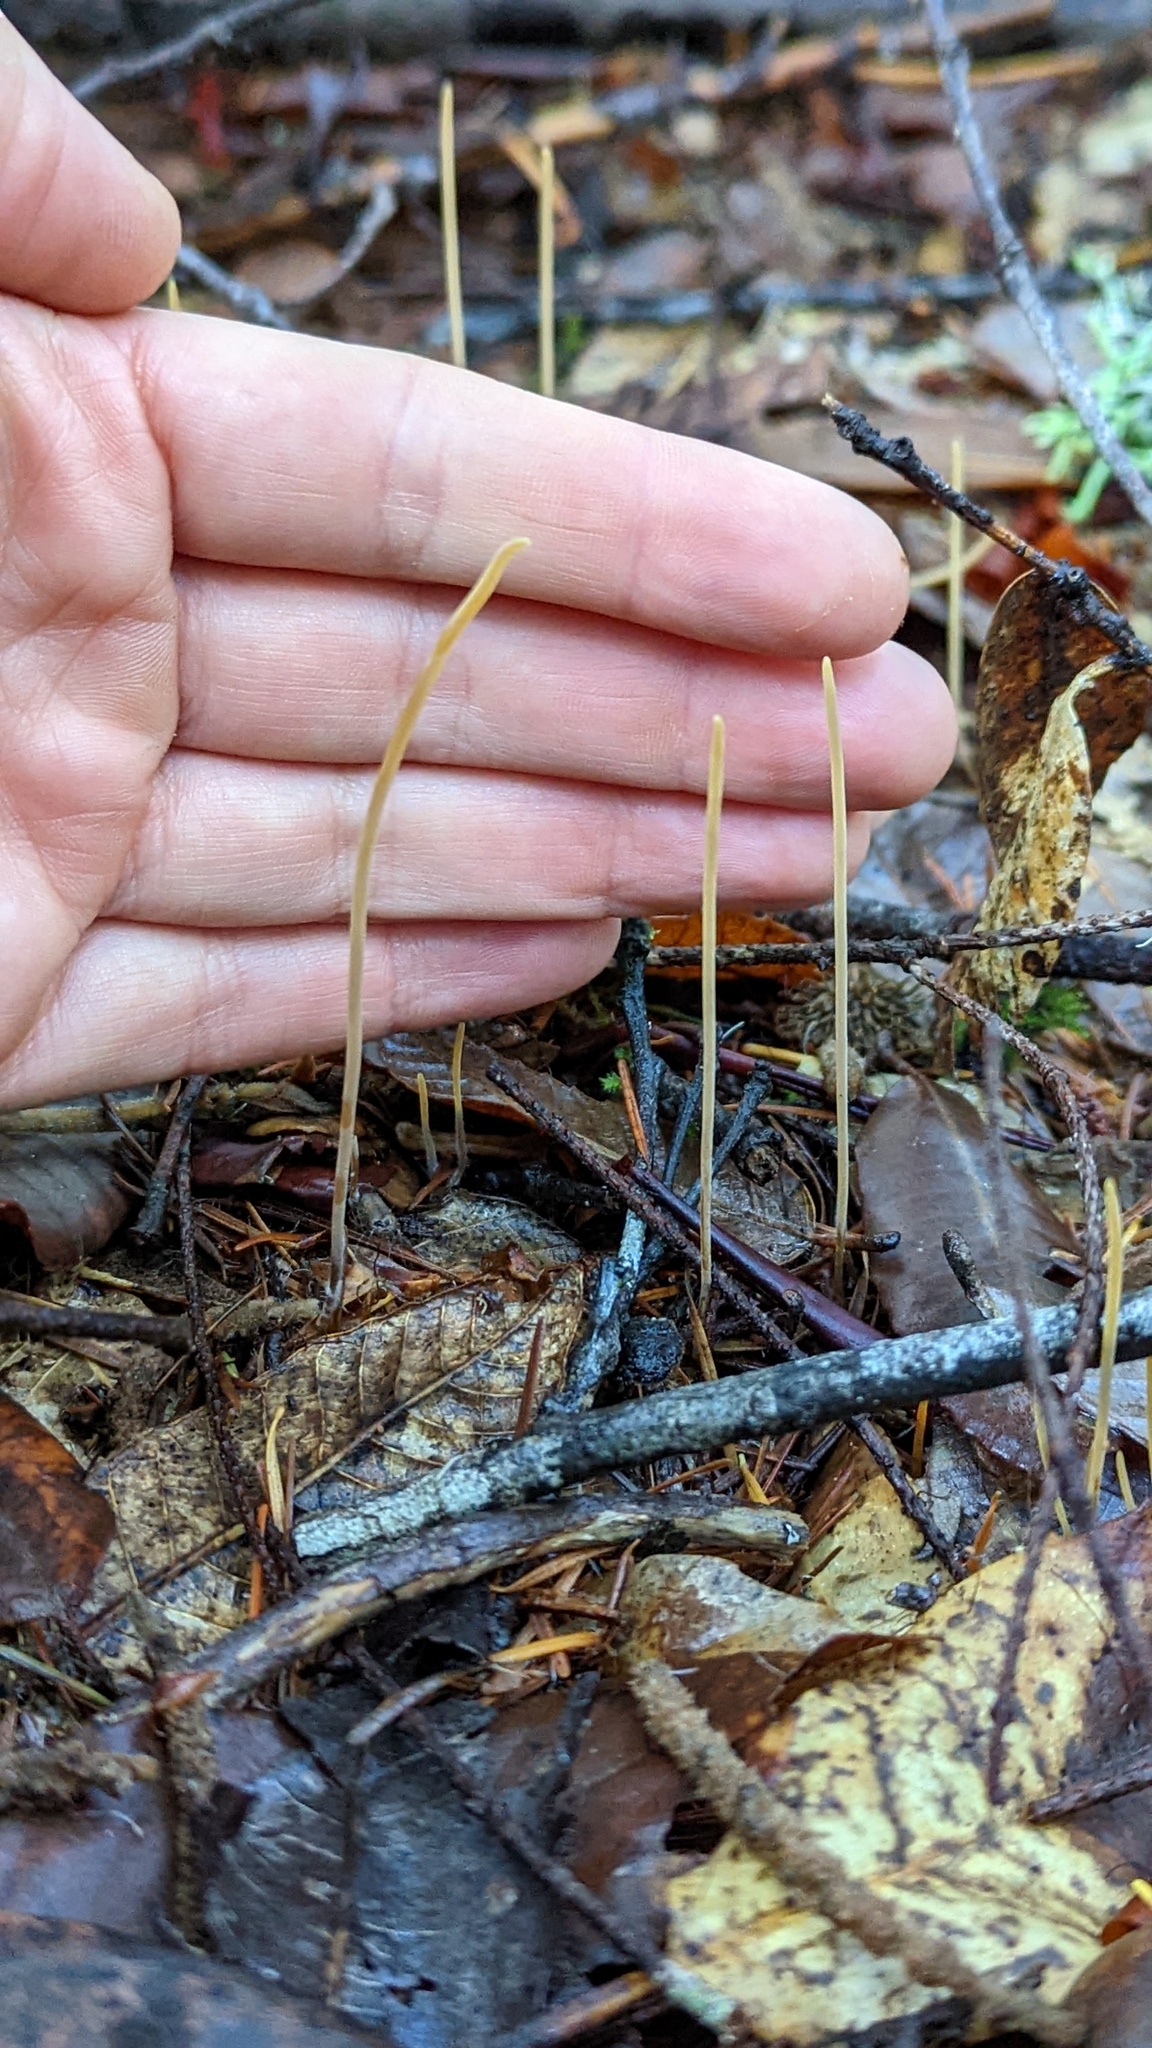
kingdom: Fungi
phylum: Basidiomycota
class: Agaricomycetes
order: Agaricales
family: Typhulaceae
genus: Typhula
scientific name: Typhula juncea
